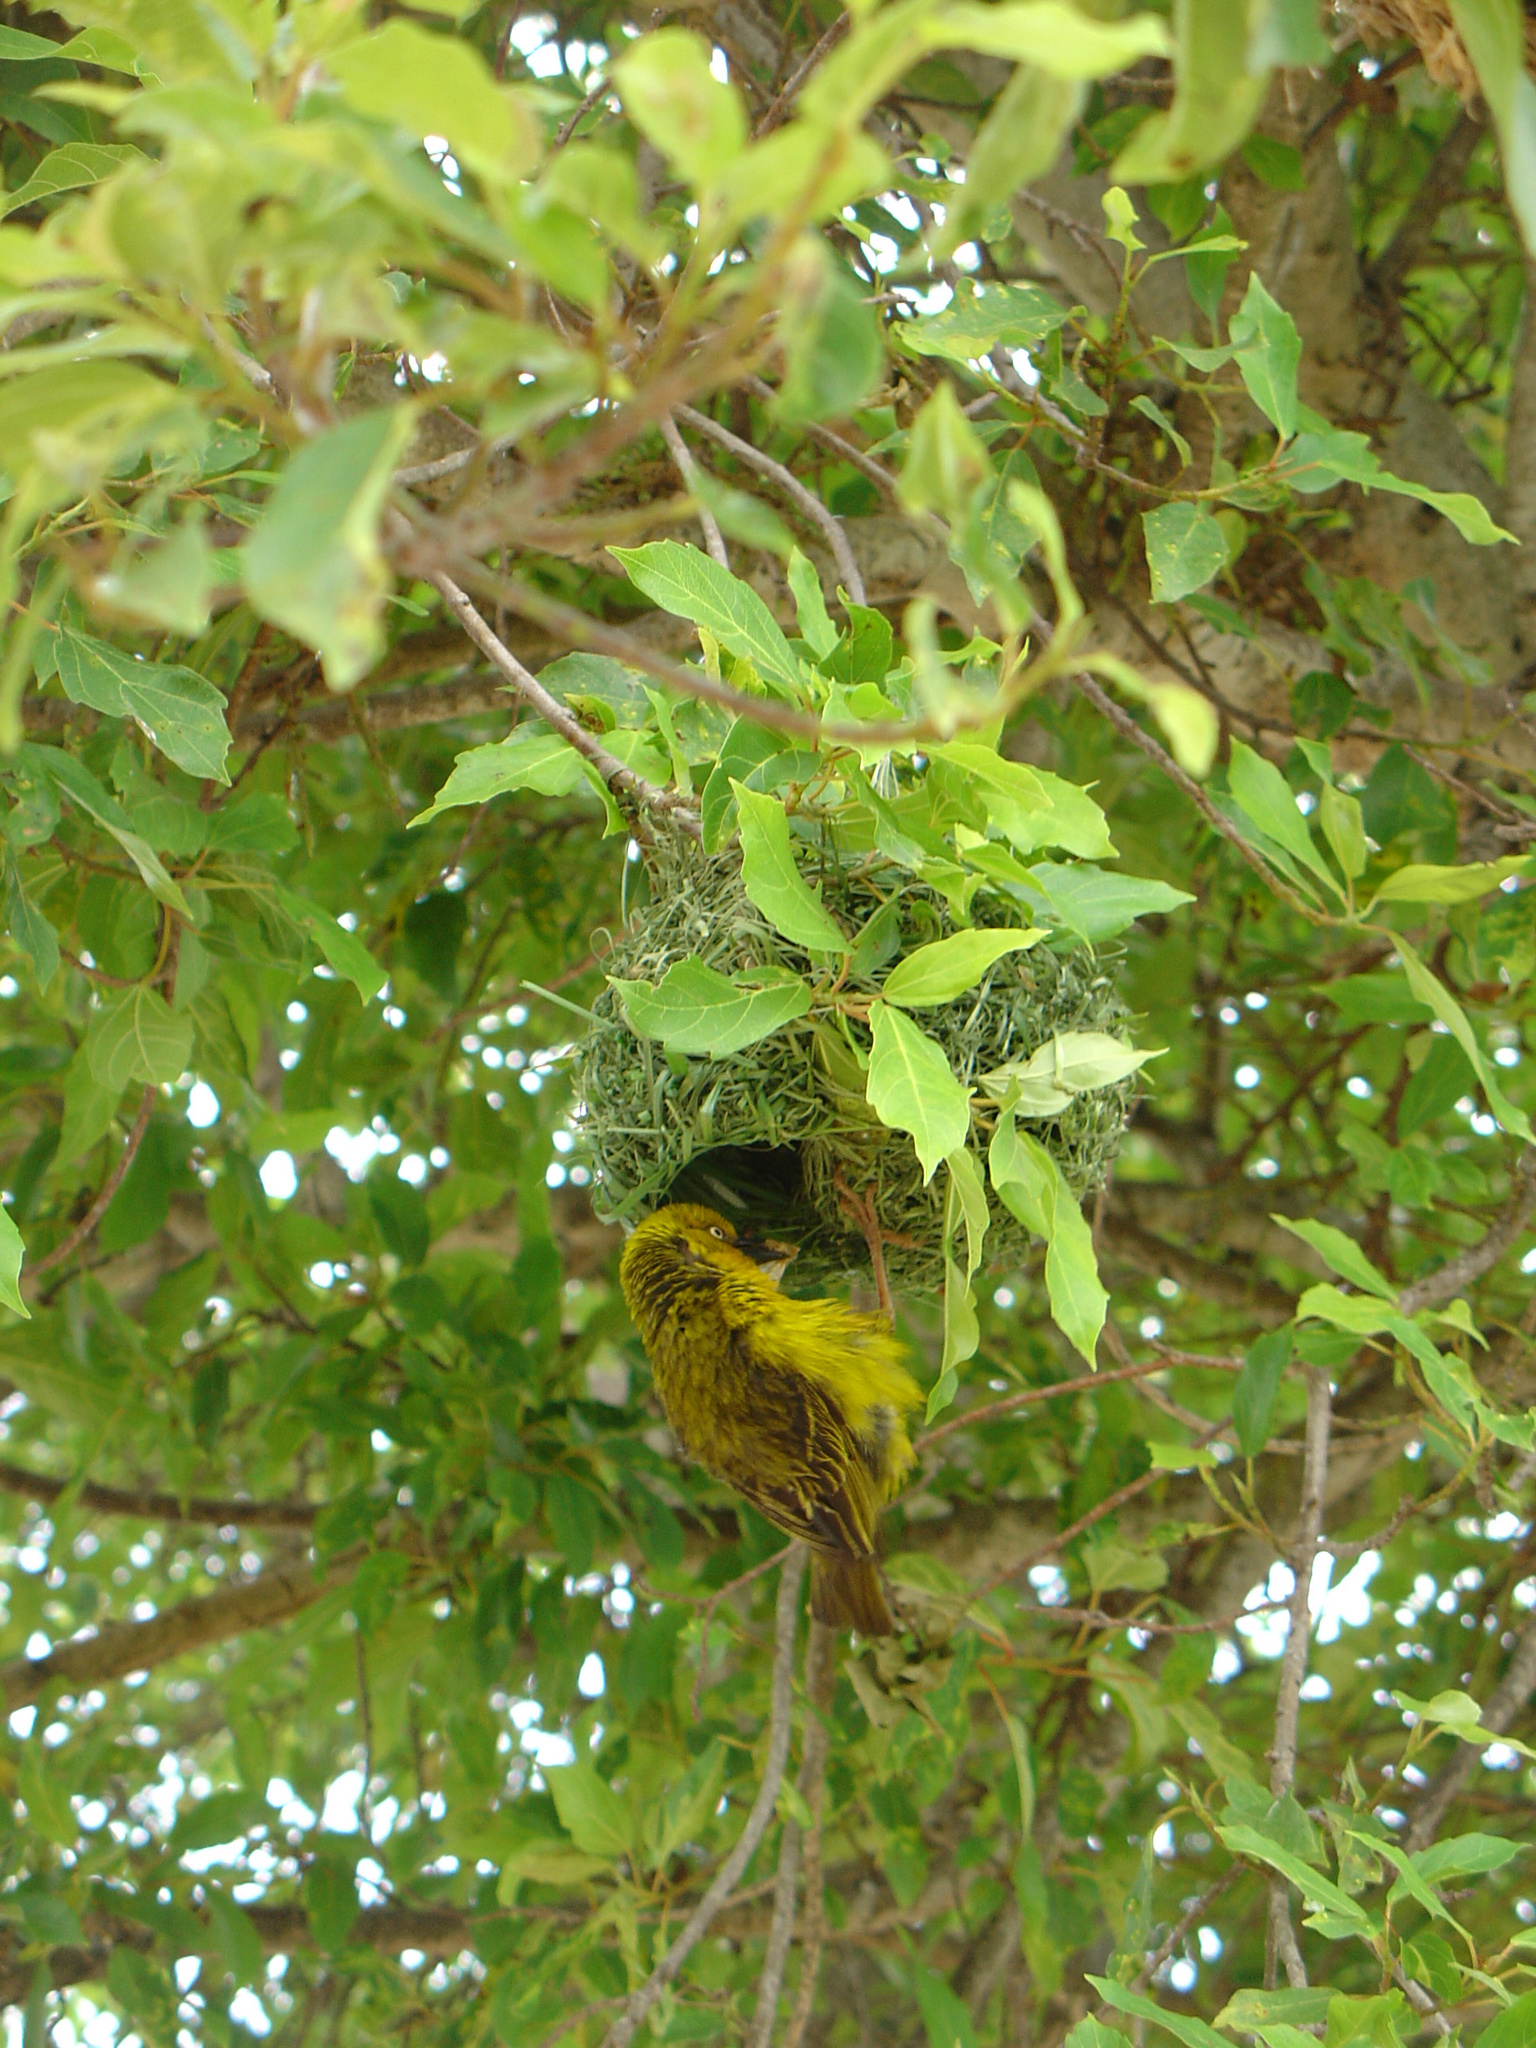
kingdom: Animalia
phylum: Chordata
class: Aves
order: Passeriformes
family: Ploceidae
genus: Ploceus
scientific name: Ploceus capensis
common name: Cape weaver
